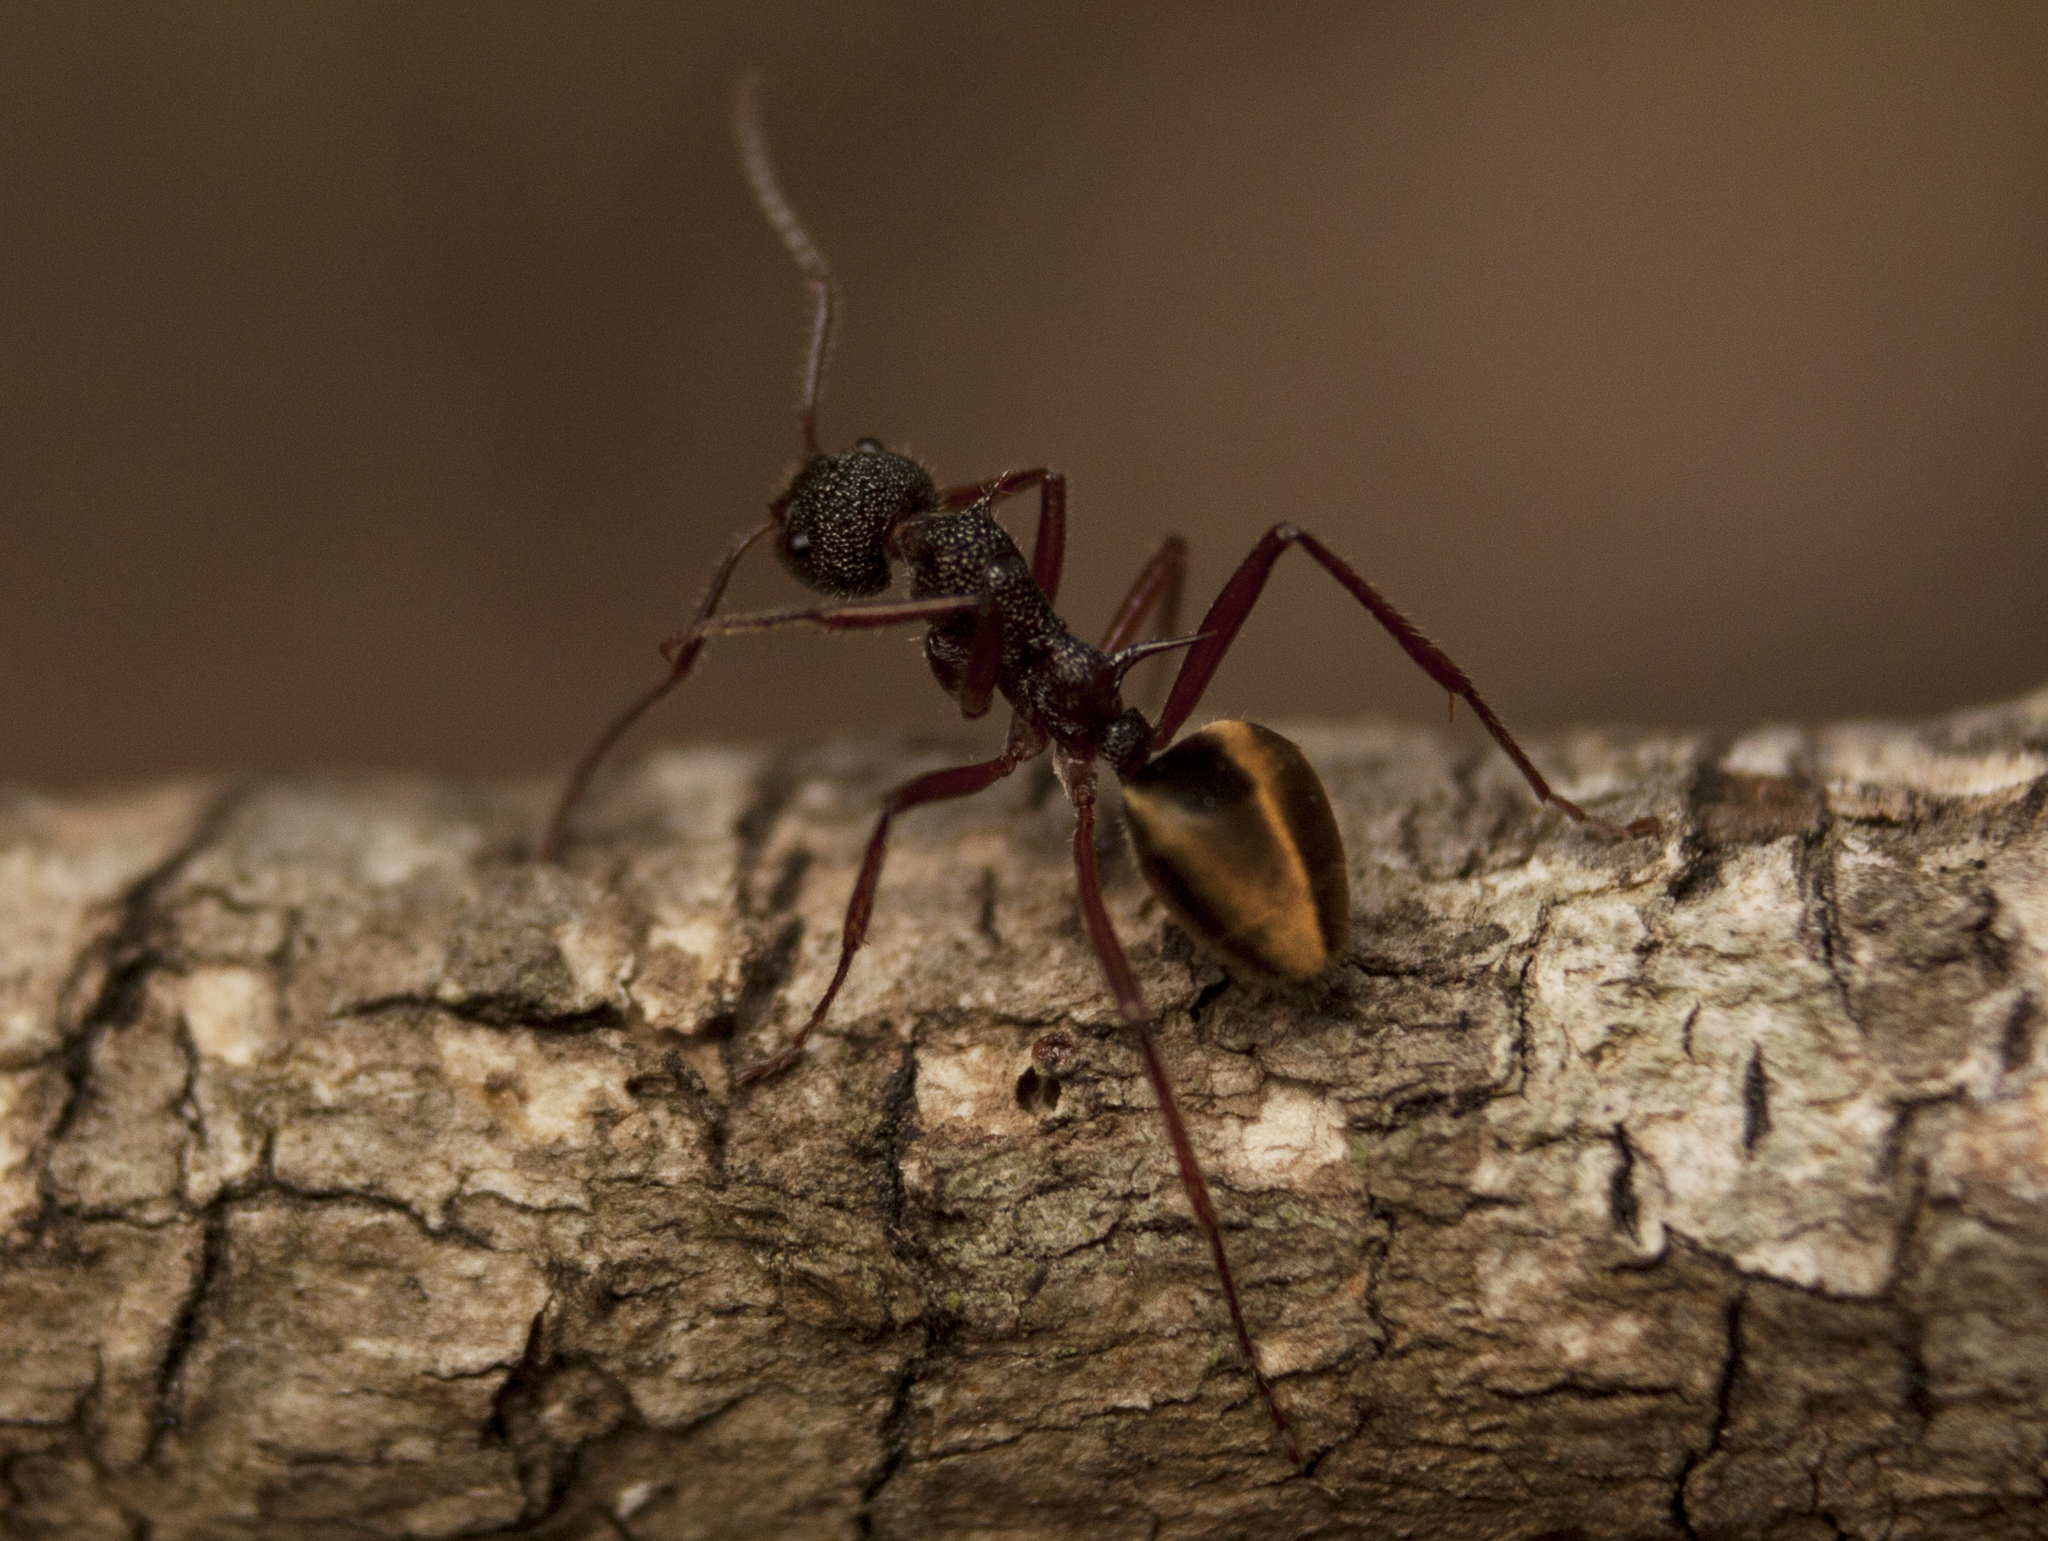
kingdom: Animalia
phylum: Arthropoda
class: Insecta
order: Hymenoptera
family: Formicidae
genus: Dolichoderus
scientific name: Dolichoderus extensispinus
